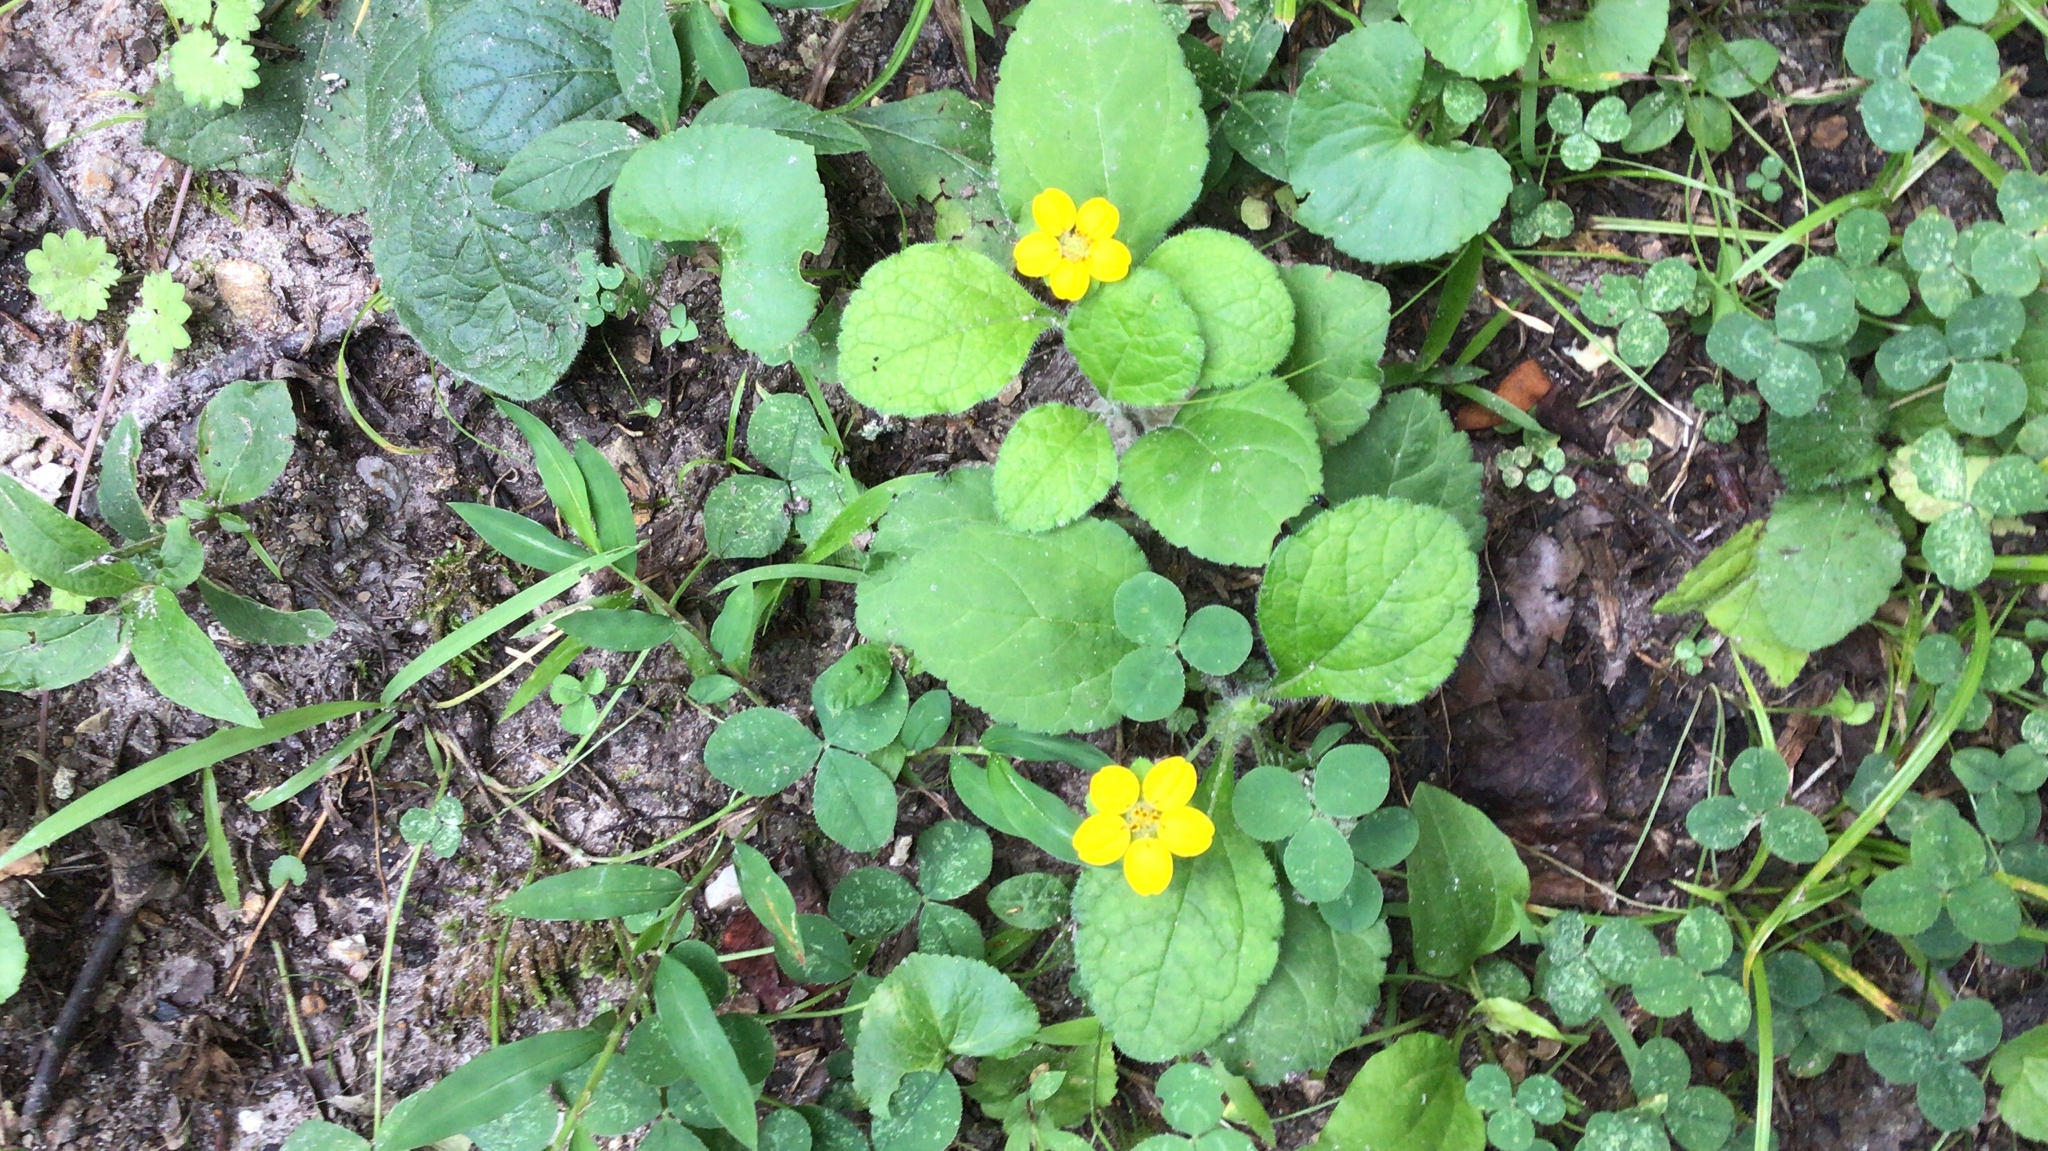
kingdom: Plantae
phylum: Tracheophyta
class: Magnoliopsida
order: Asterales
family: Asteraceae
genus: Chrysogonum
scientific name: Chrysogonum virginianum
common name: Golden-knee
